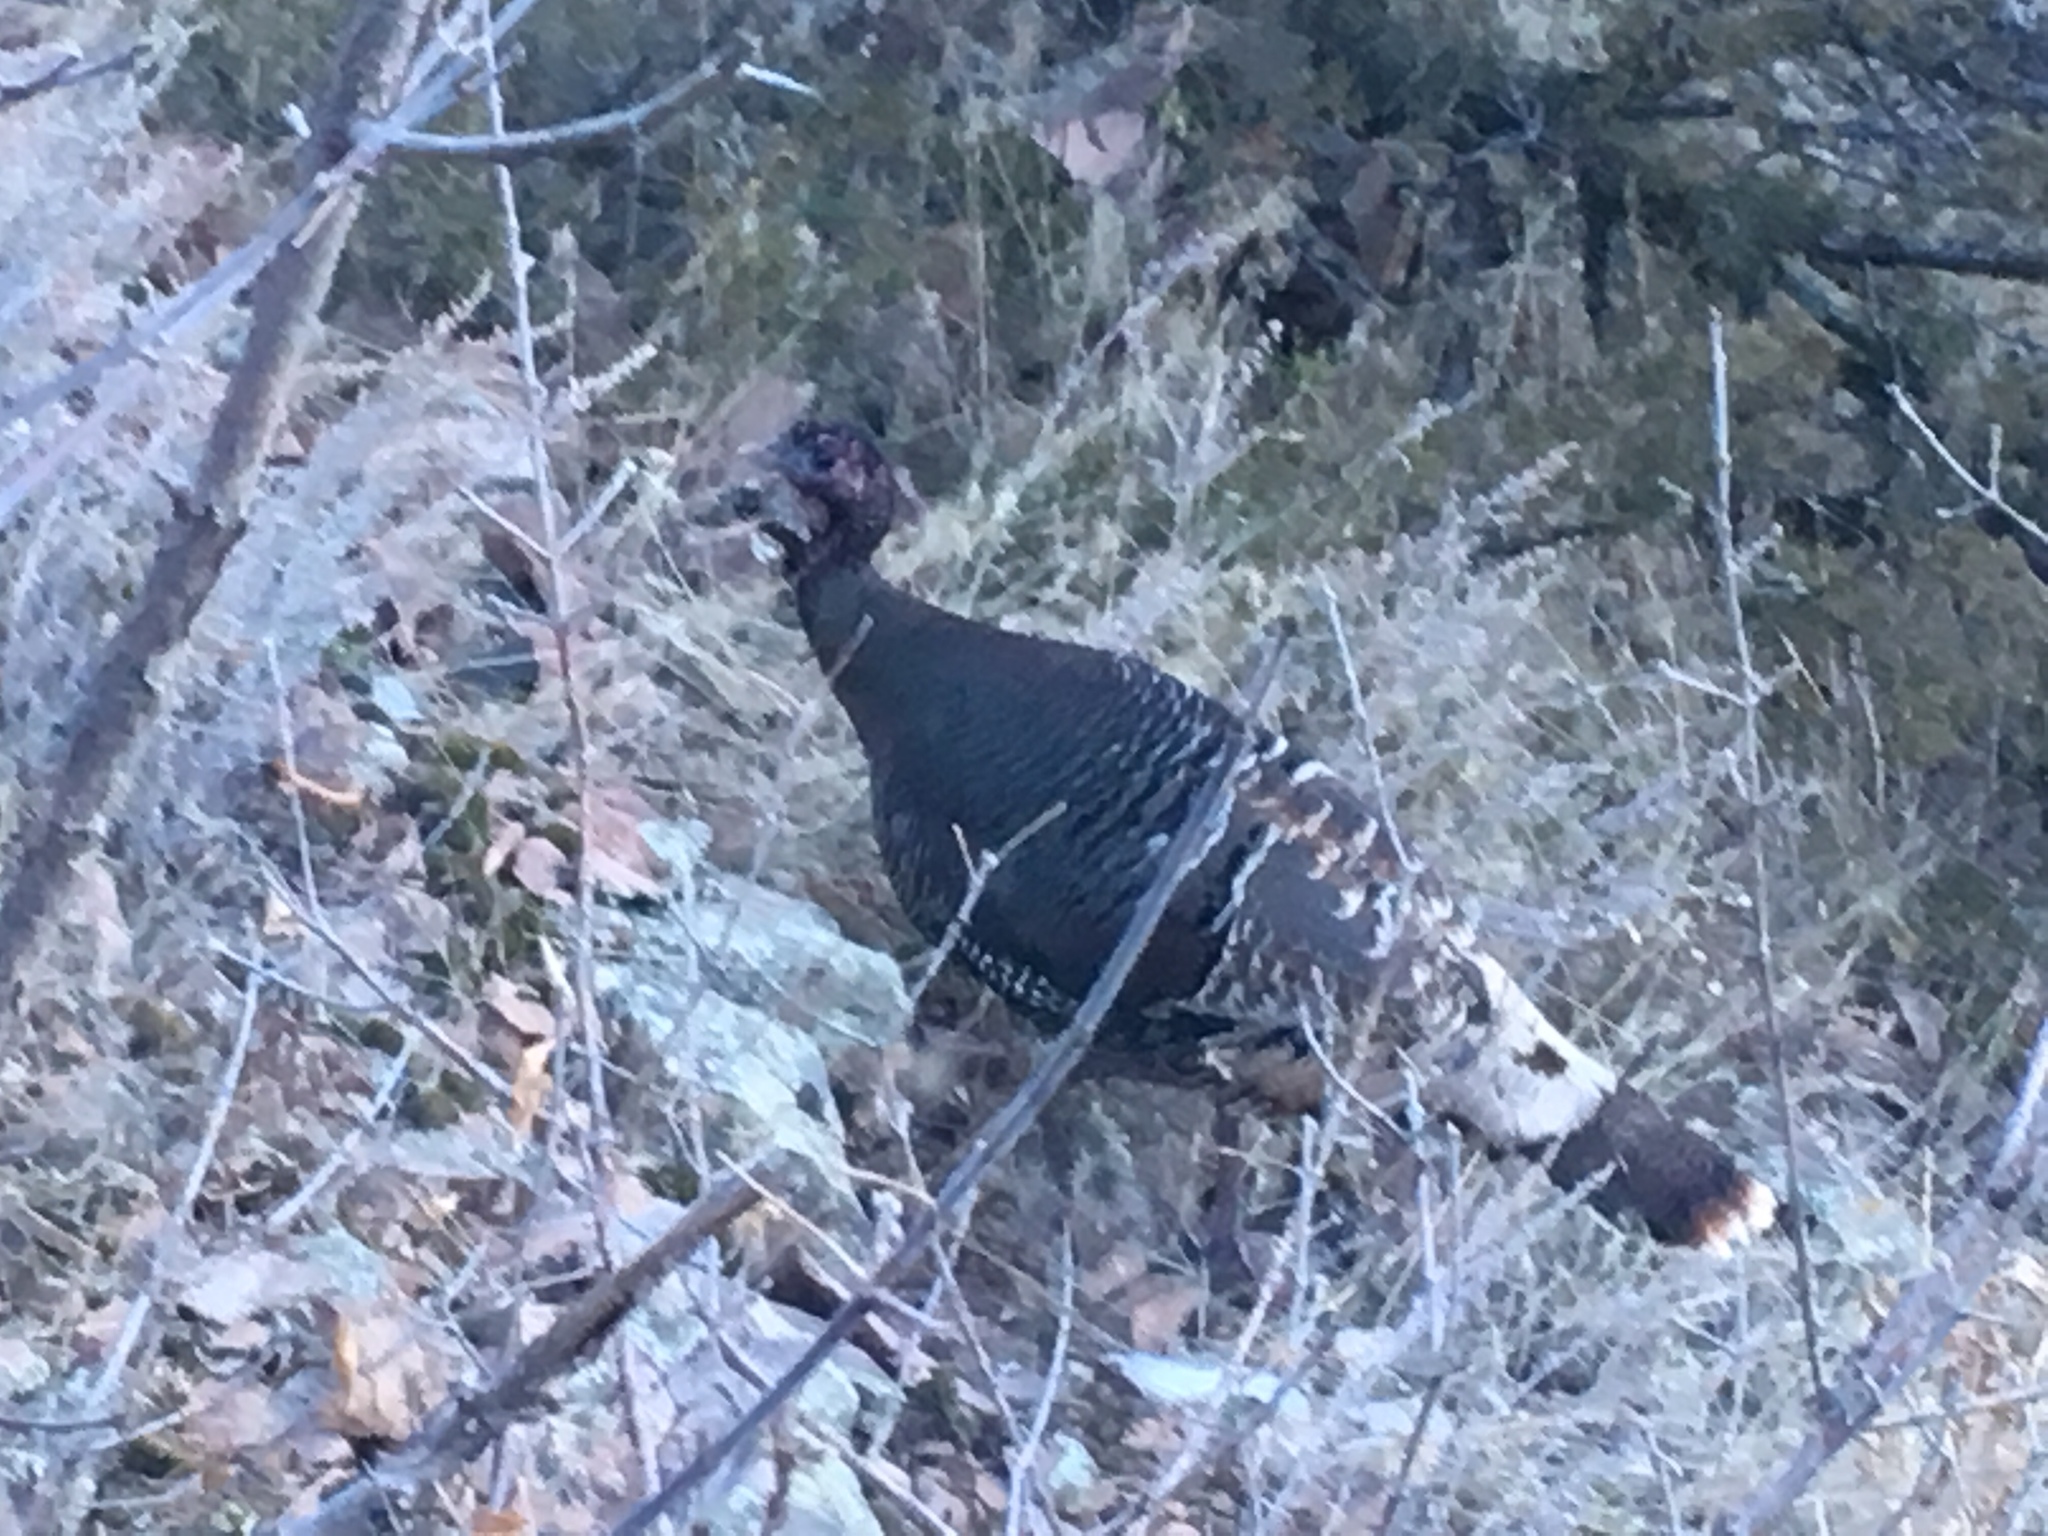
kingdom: Animalia
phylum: Chordata
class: Aves
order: Galliformes
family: Phasianidae
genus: Meleagris
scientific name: Meleagris gallopavo
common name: Wild turkey
